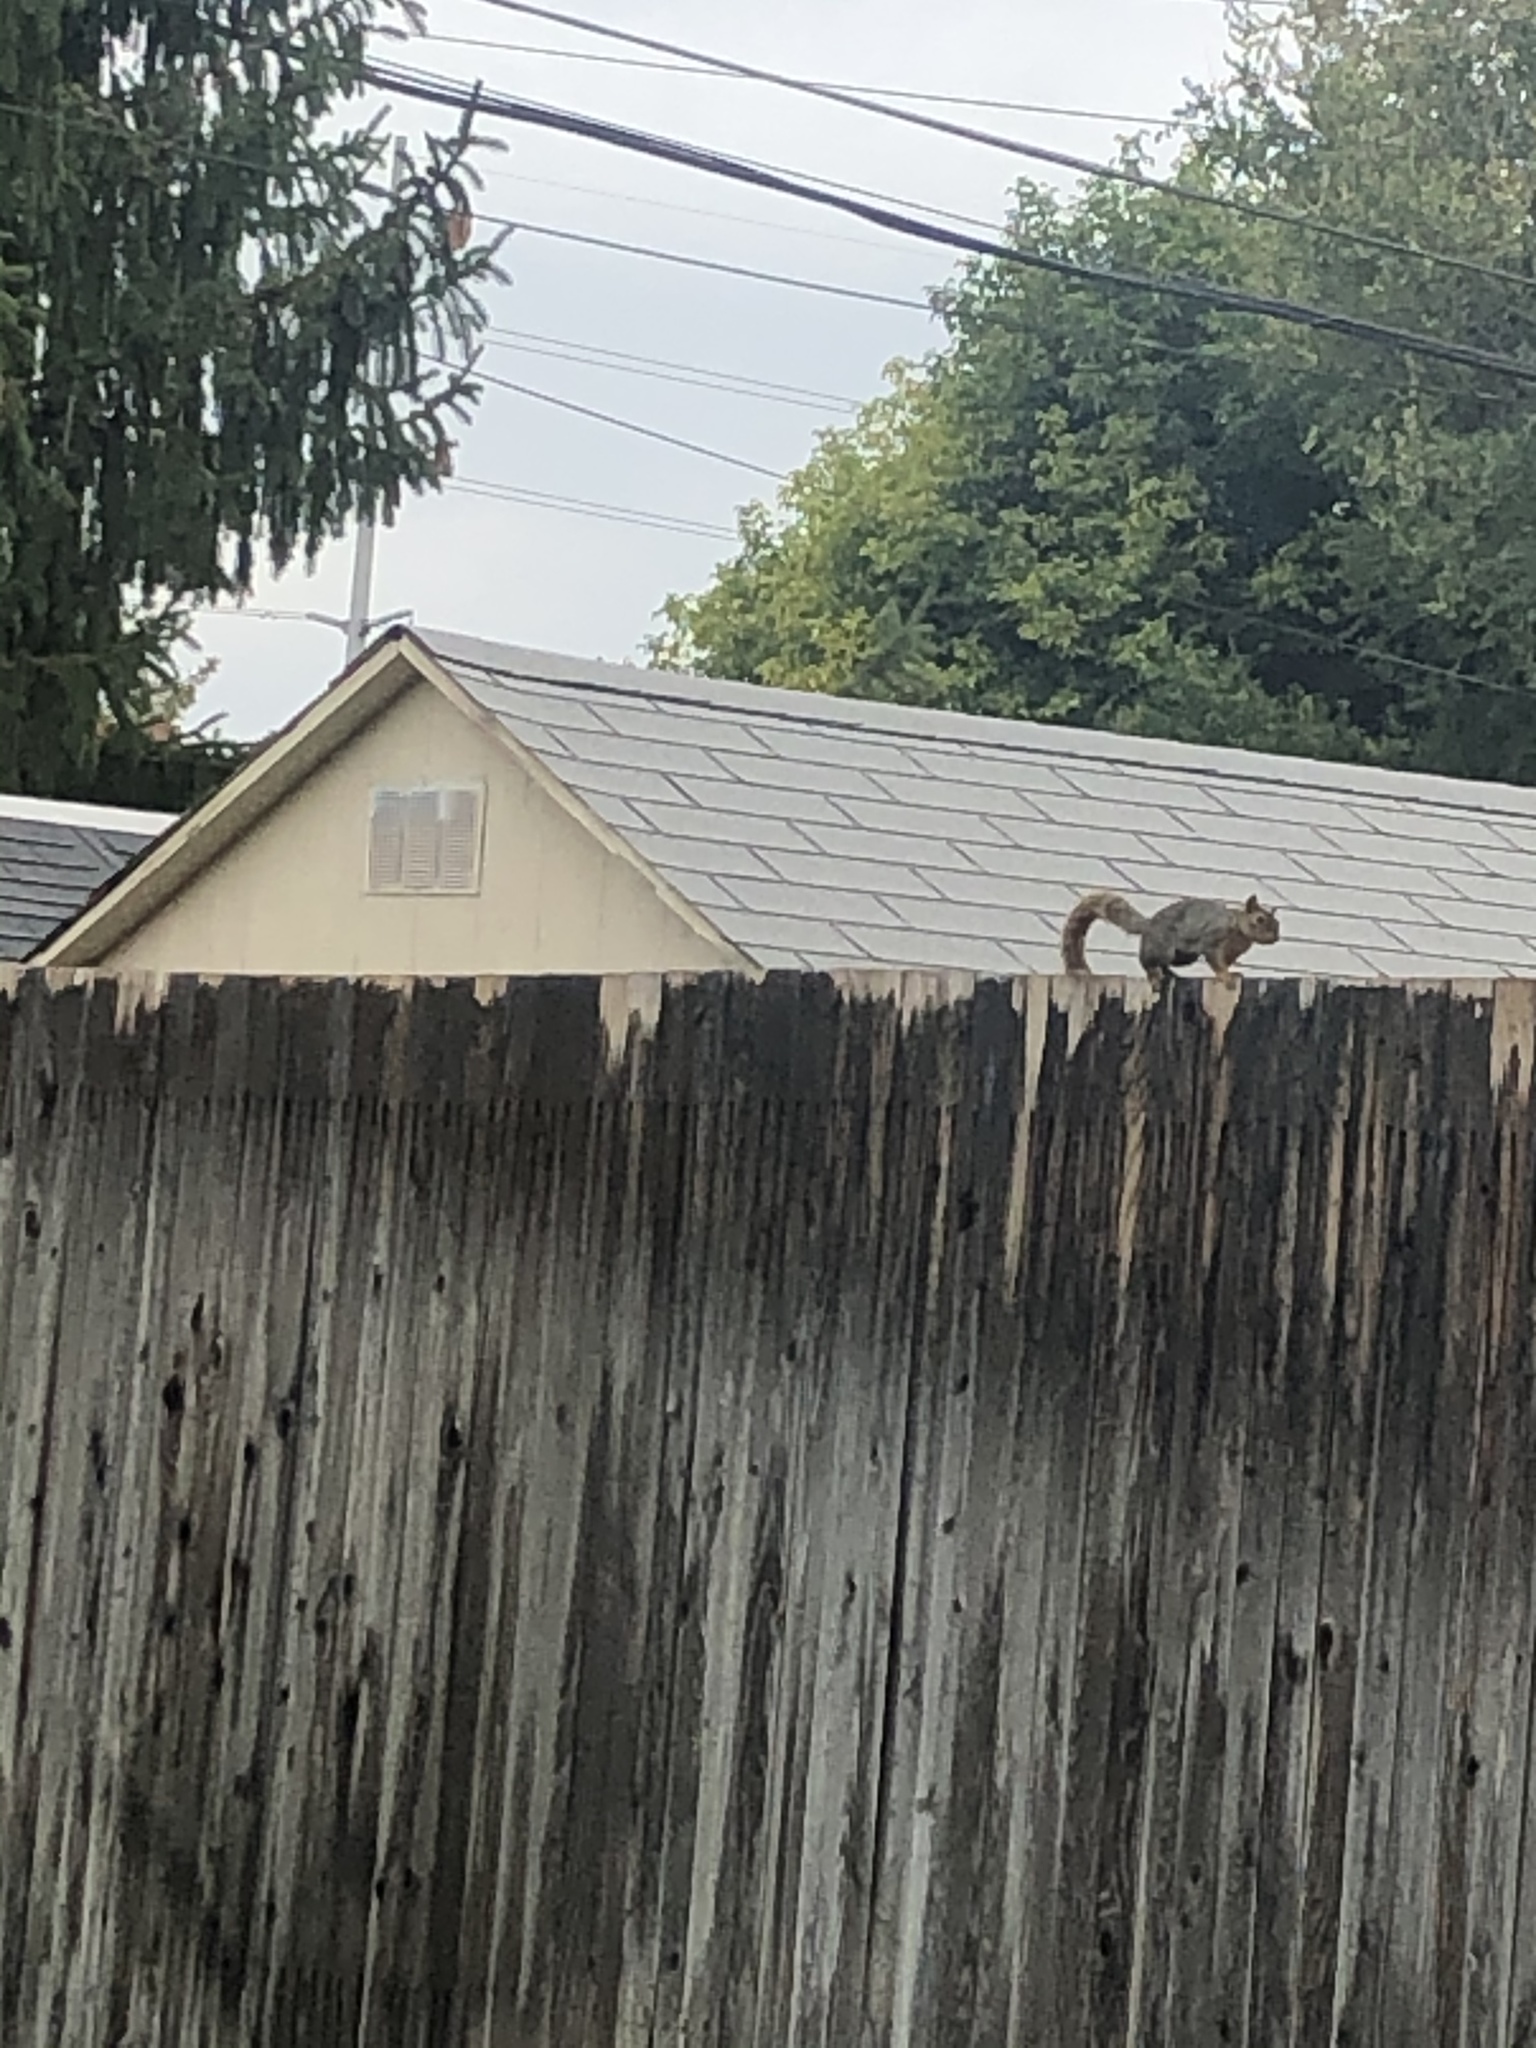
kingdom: Animalia
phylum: Chordata
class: Mammalia
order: Rodentia
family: Sciuridae
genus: Sciurus
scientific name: Sciurus niger
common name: Fox squirrel
